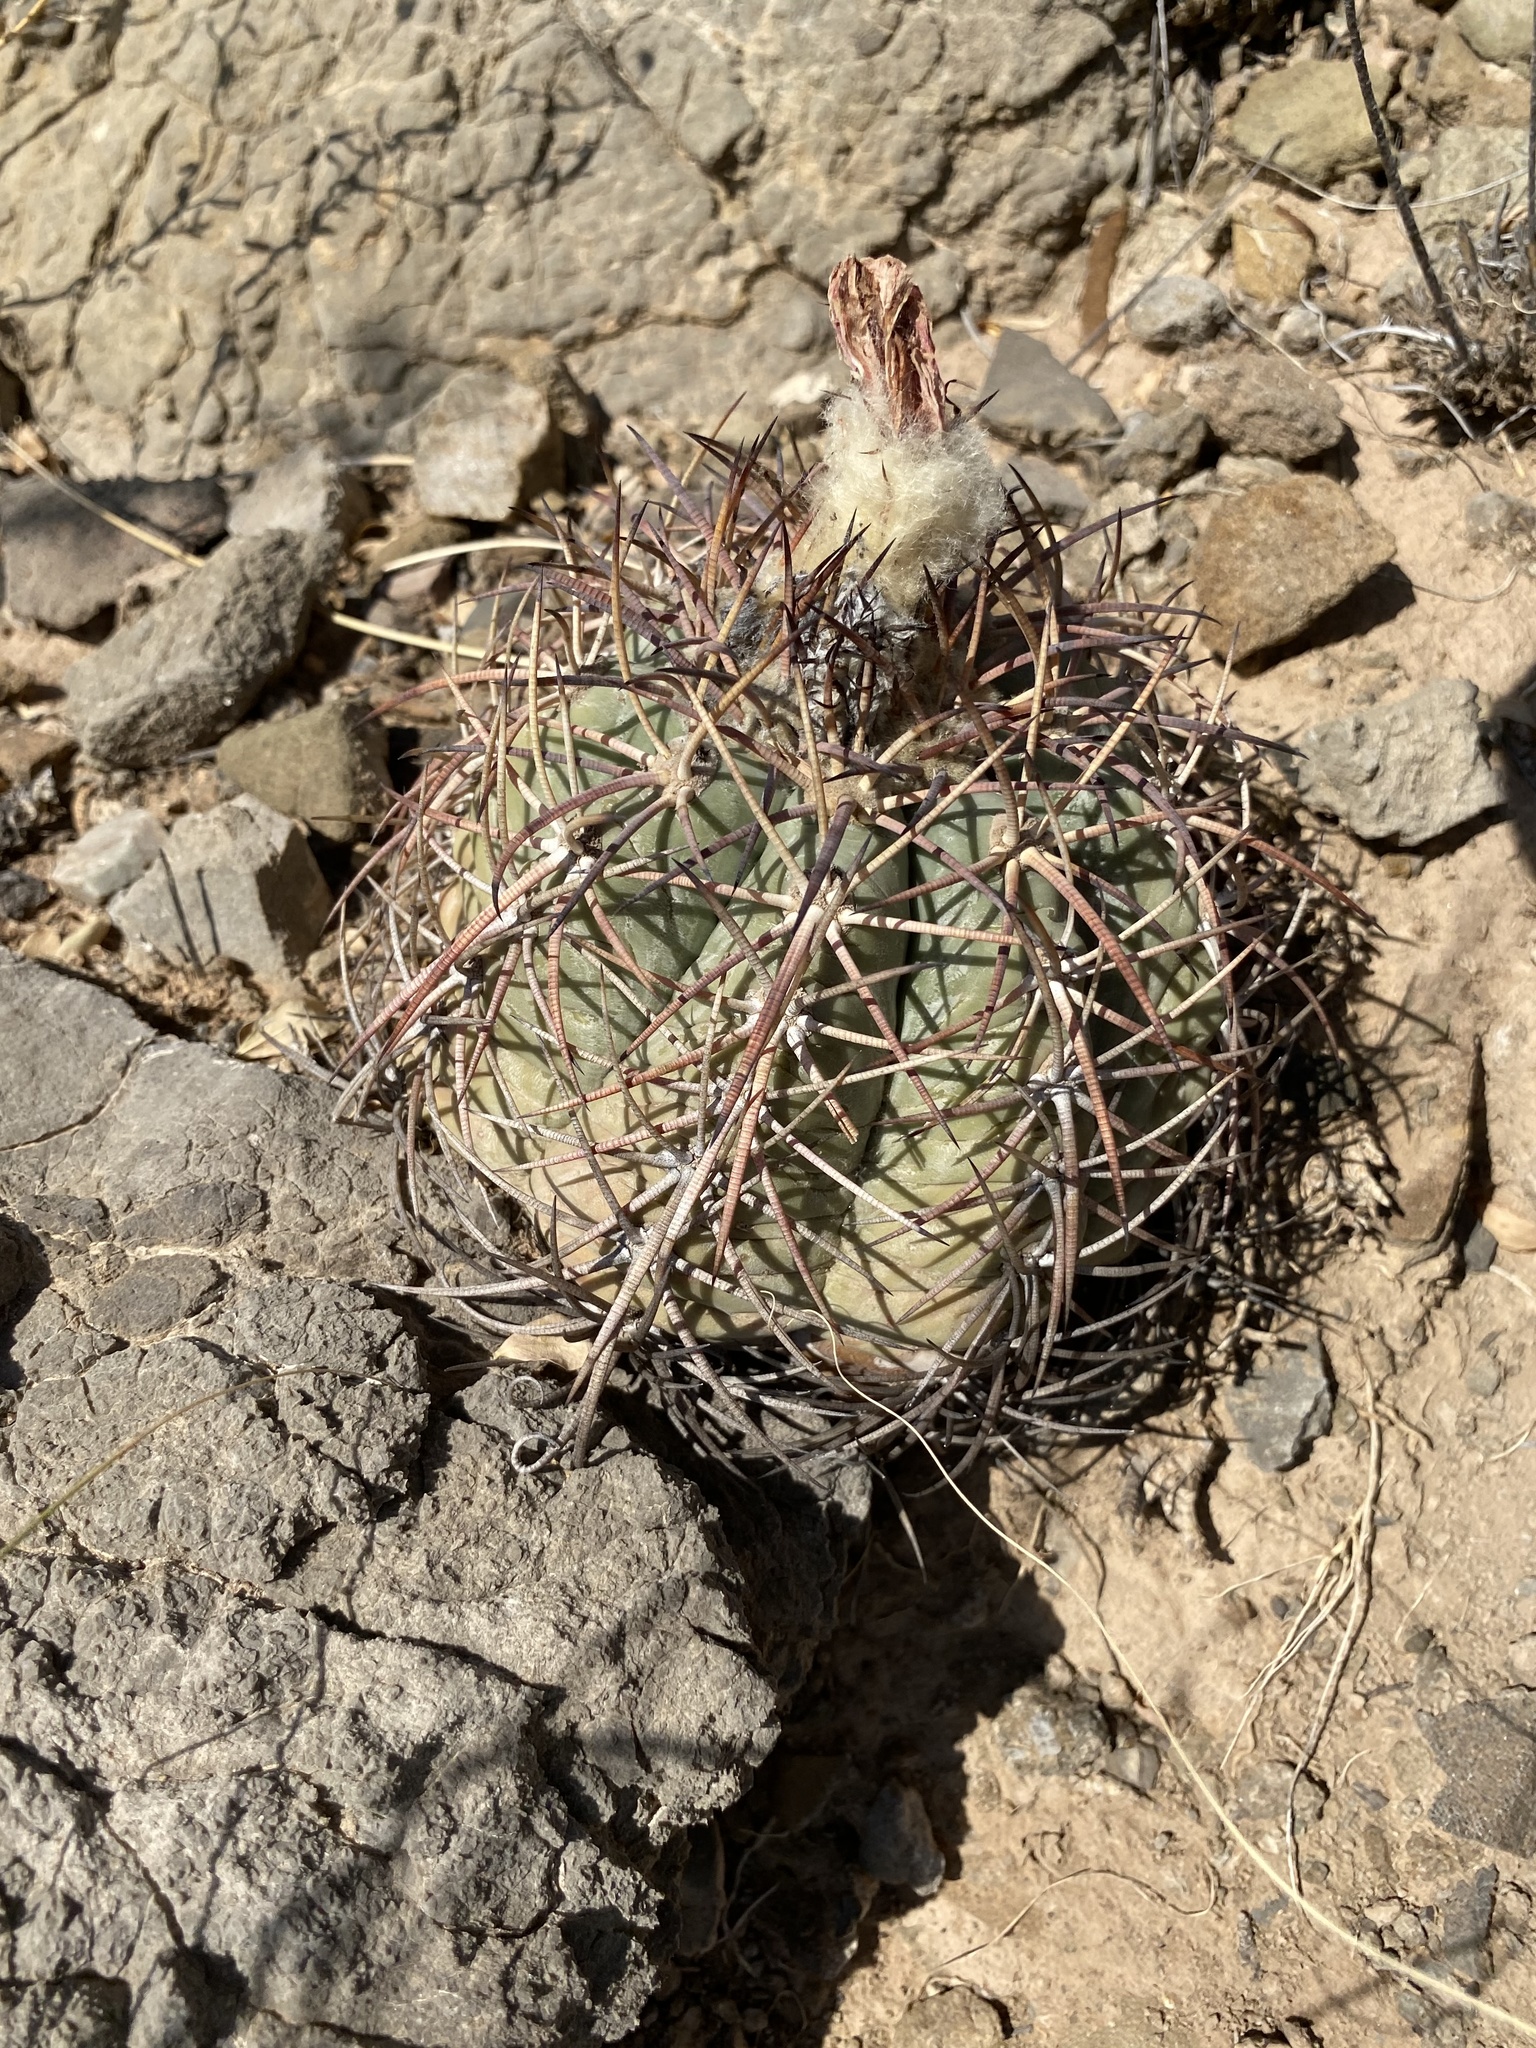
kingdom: Plantae
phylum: Tracheophyta
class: Magnoliopsida
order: Caryophyllales
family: Cactaceae
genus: Echinocactus
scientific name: Echinocactus horizonthalonius
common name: Devilshead
